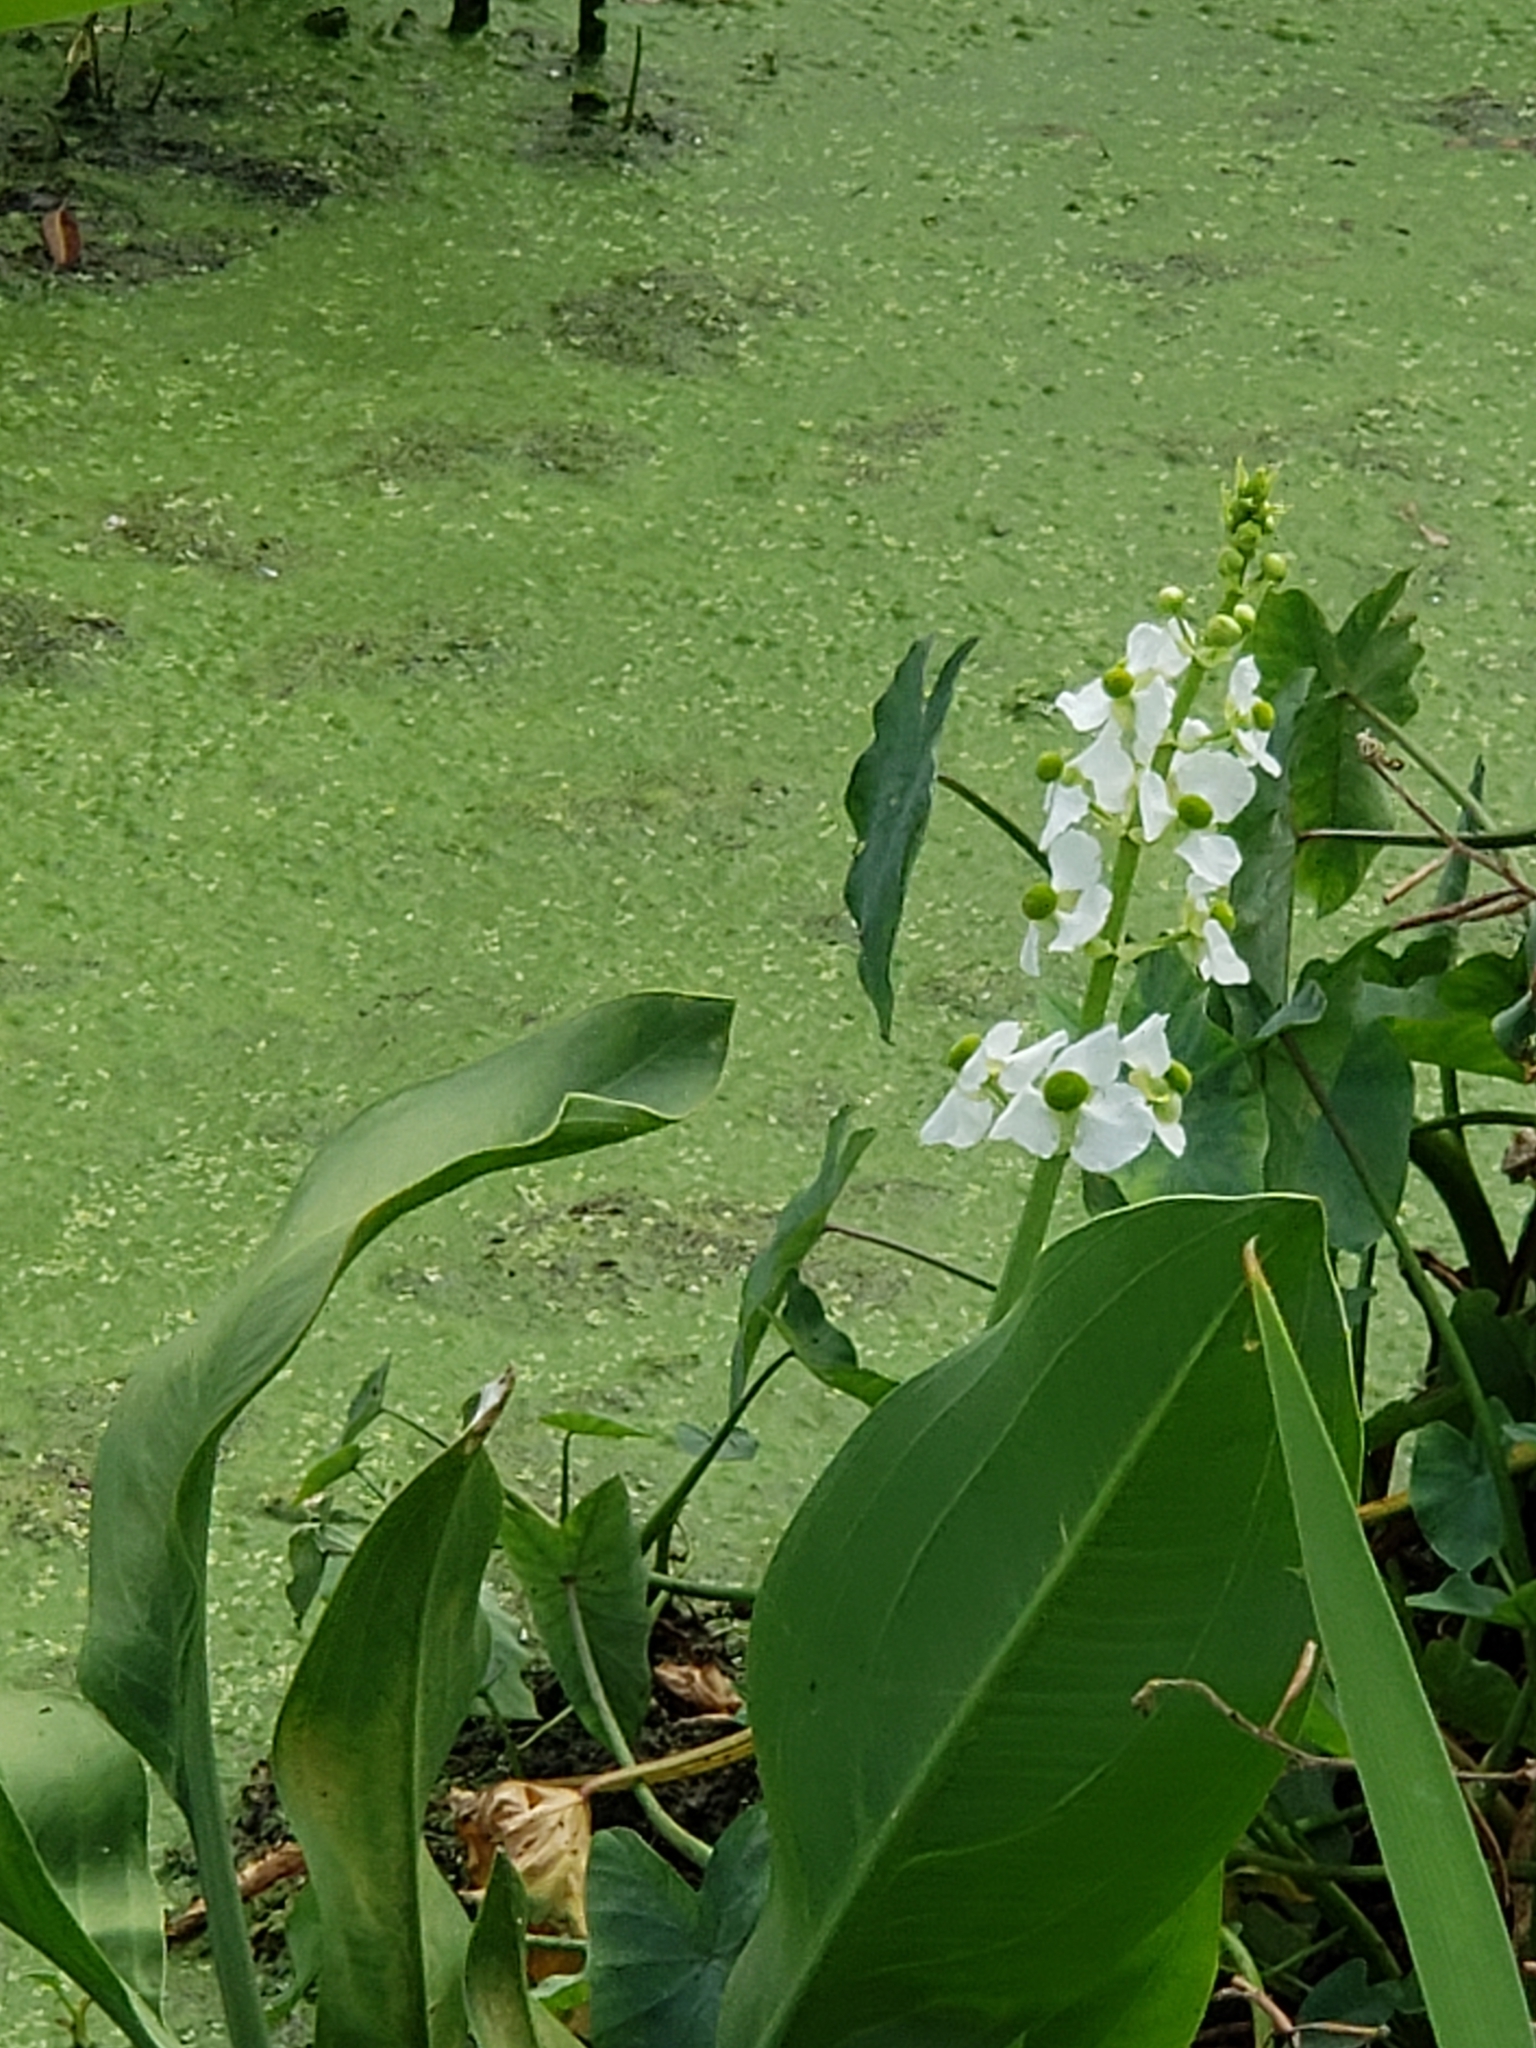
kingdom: Plantae
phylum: Tracheophyta
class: Liliopsida
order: Alismatales
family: Alismataceae
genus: Sagittaria
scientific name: Sagittaria lancifolia
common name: Lance-leaf arrowhead
